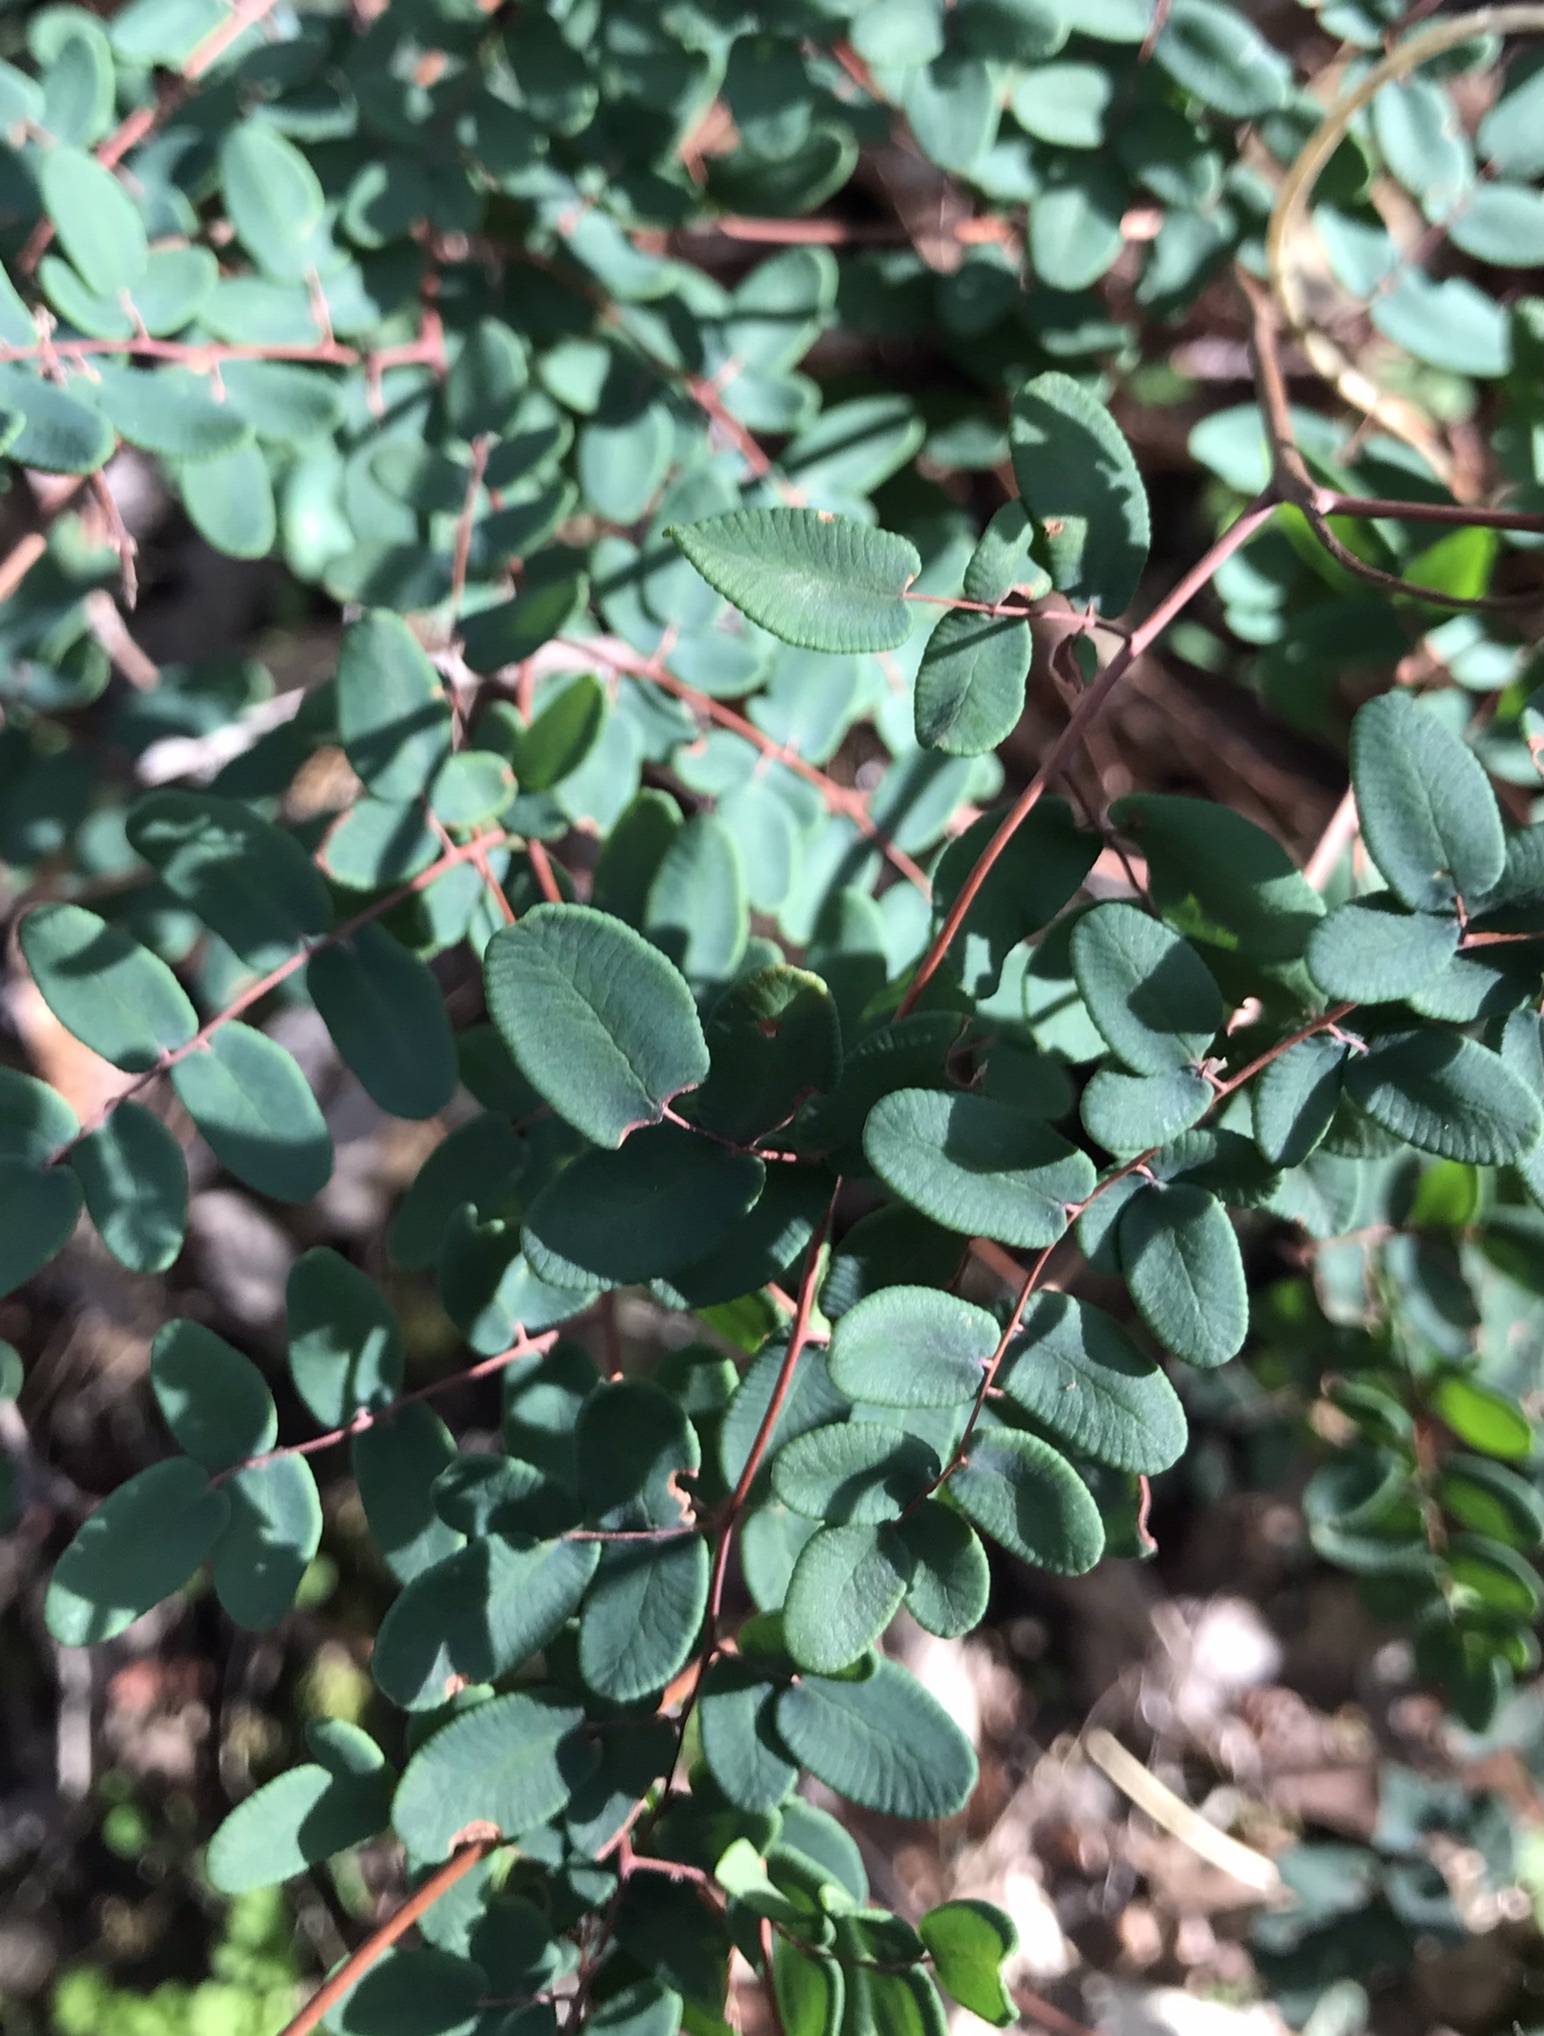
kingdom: Plantae
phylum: Tracheophyta
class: Polypodiopsida
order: Polypodiales
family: Pteridaceae
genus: Pellaea
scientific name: Pellaea andromedifolia
